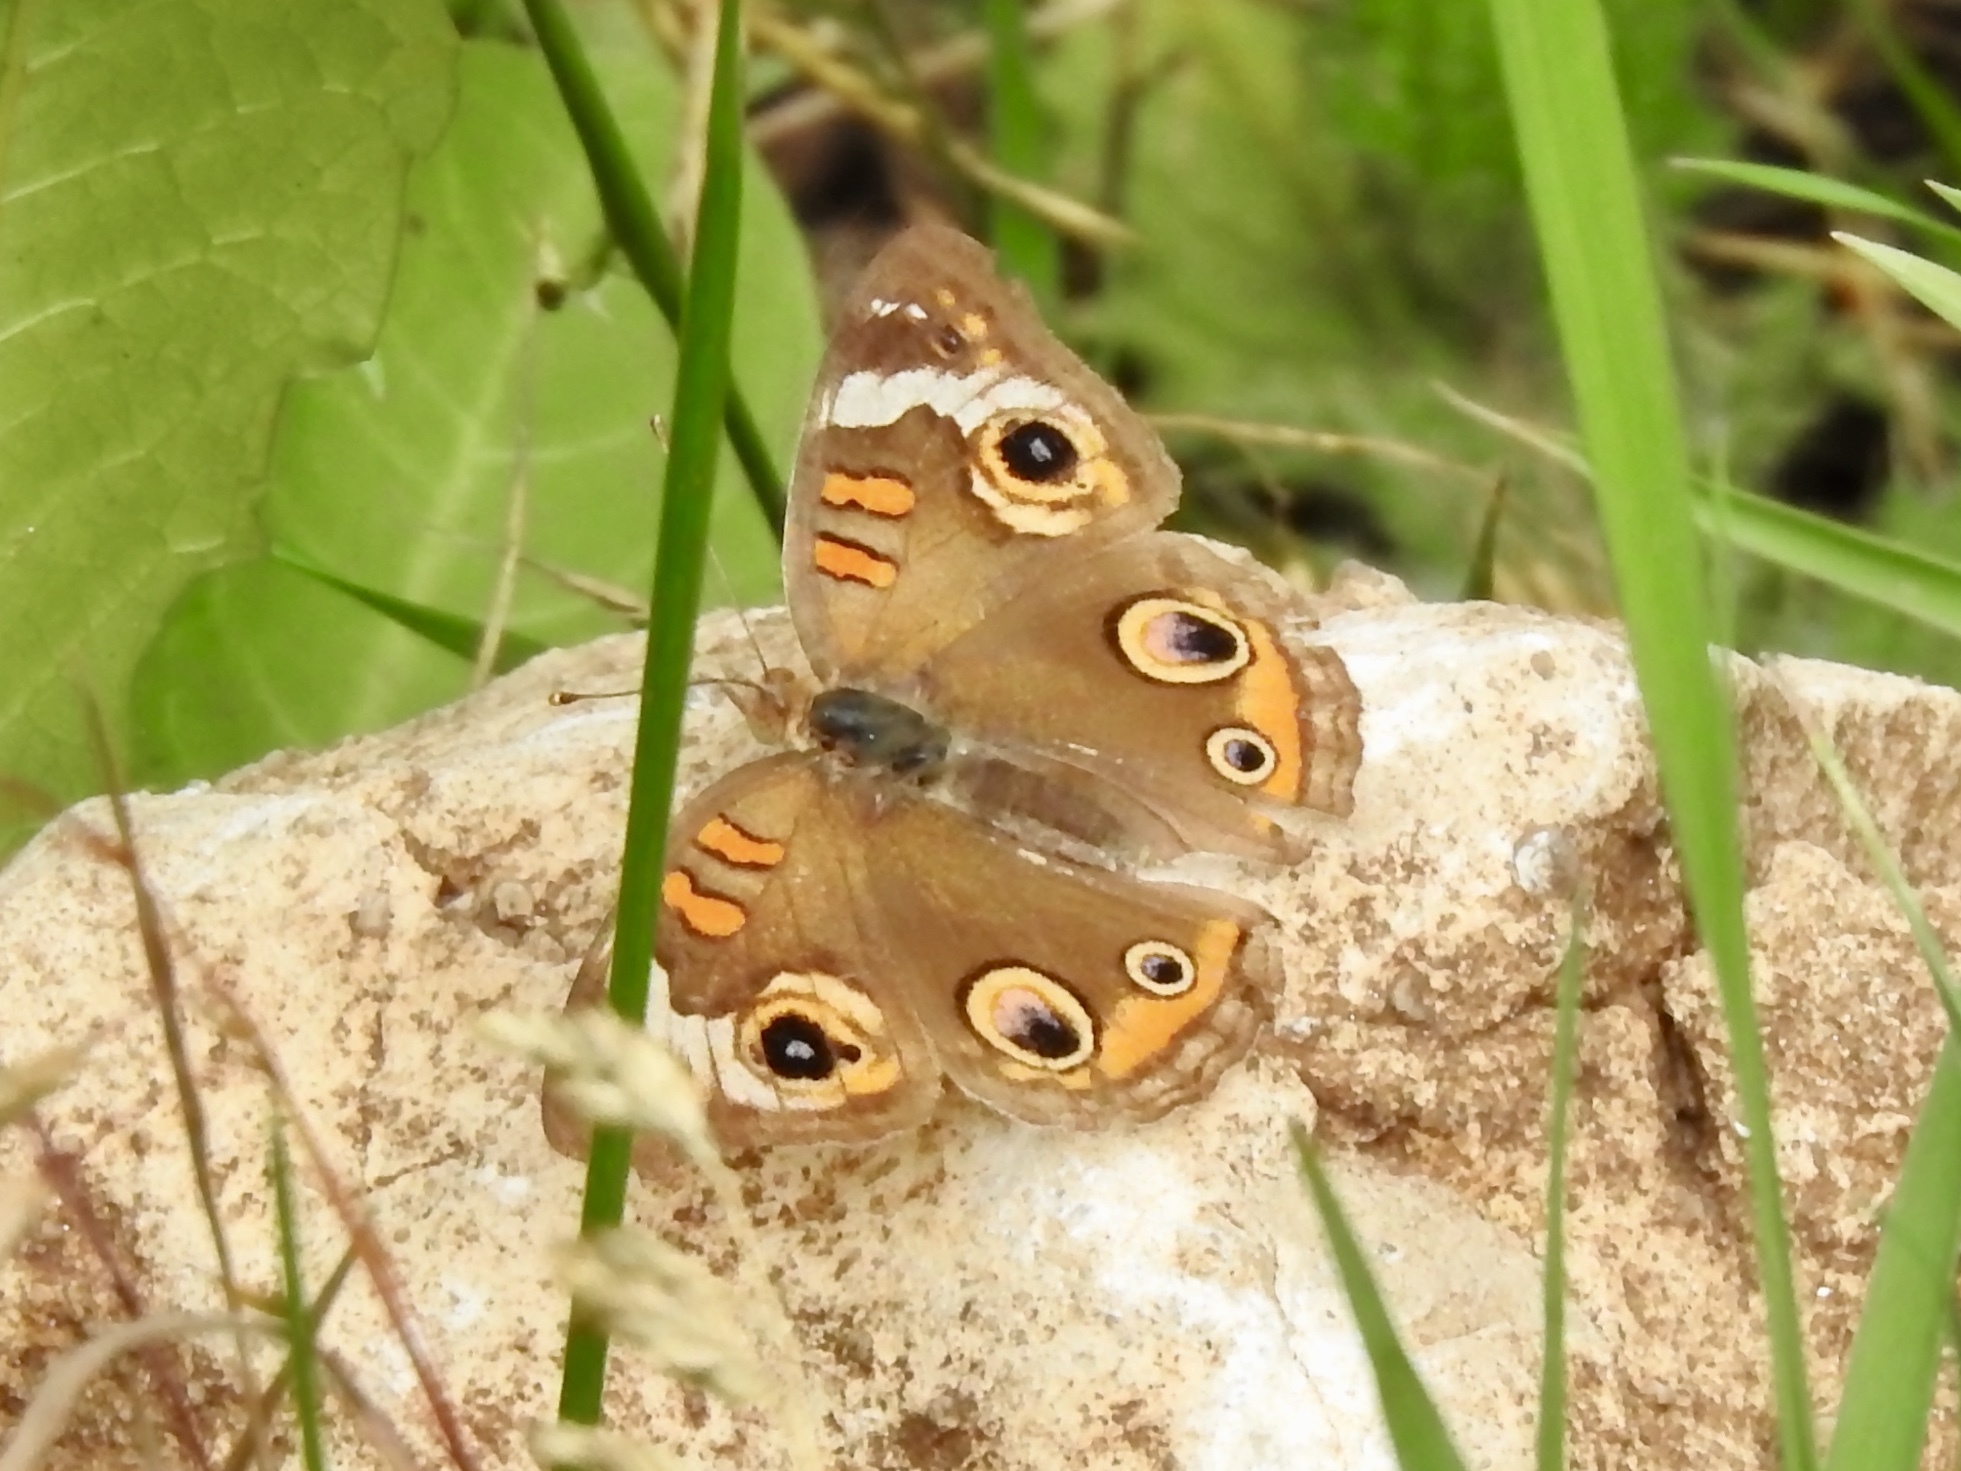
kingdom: Animalia
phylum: Arthropoda
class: Insecta
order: Lepidoptera
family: Nymphalidae
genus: Junonia
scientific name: Junonia grisea
